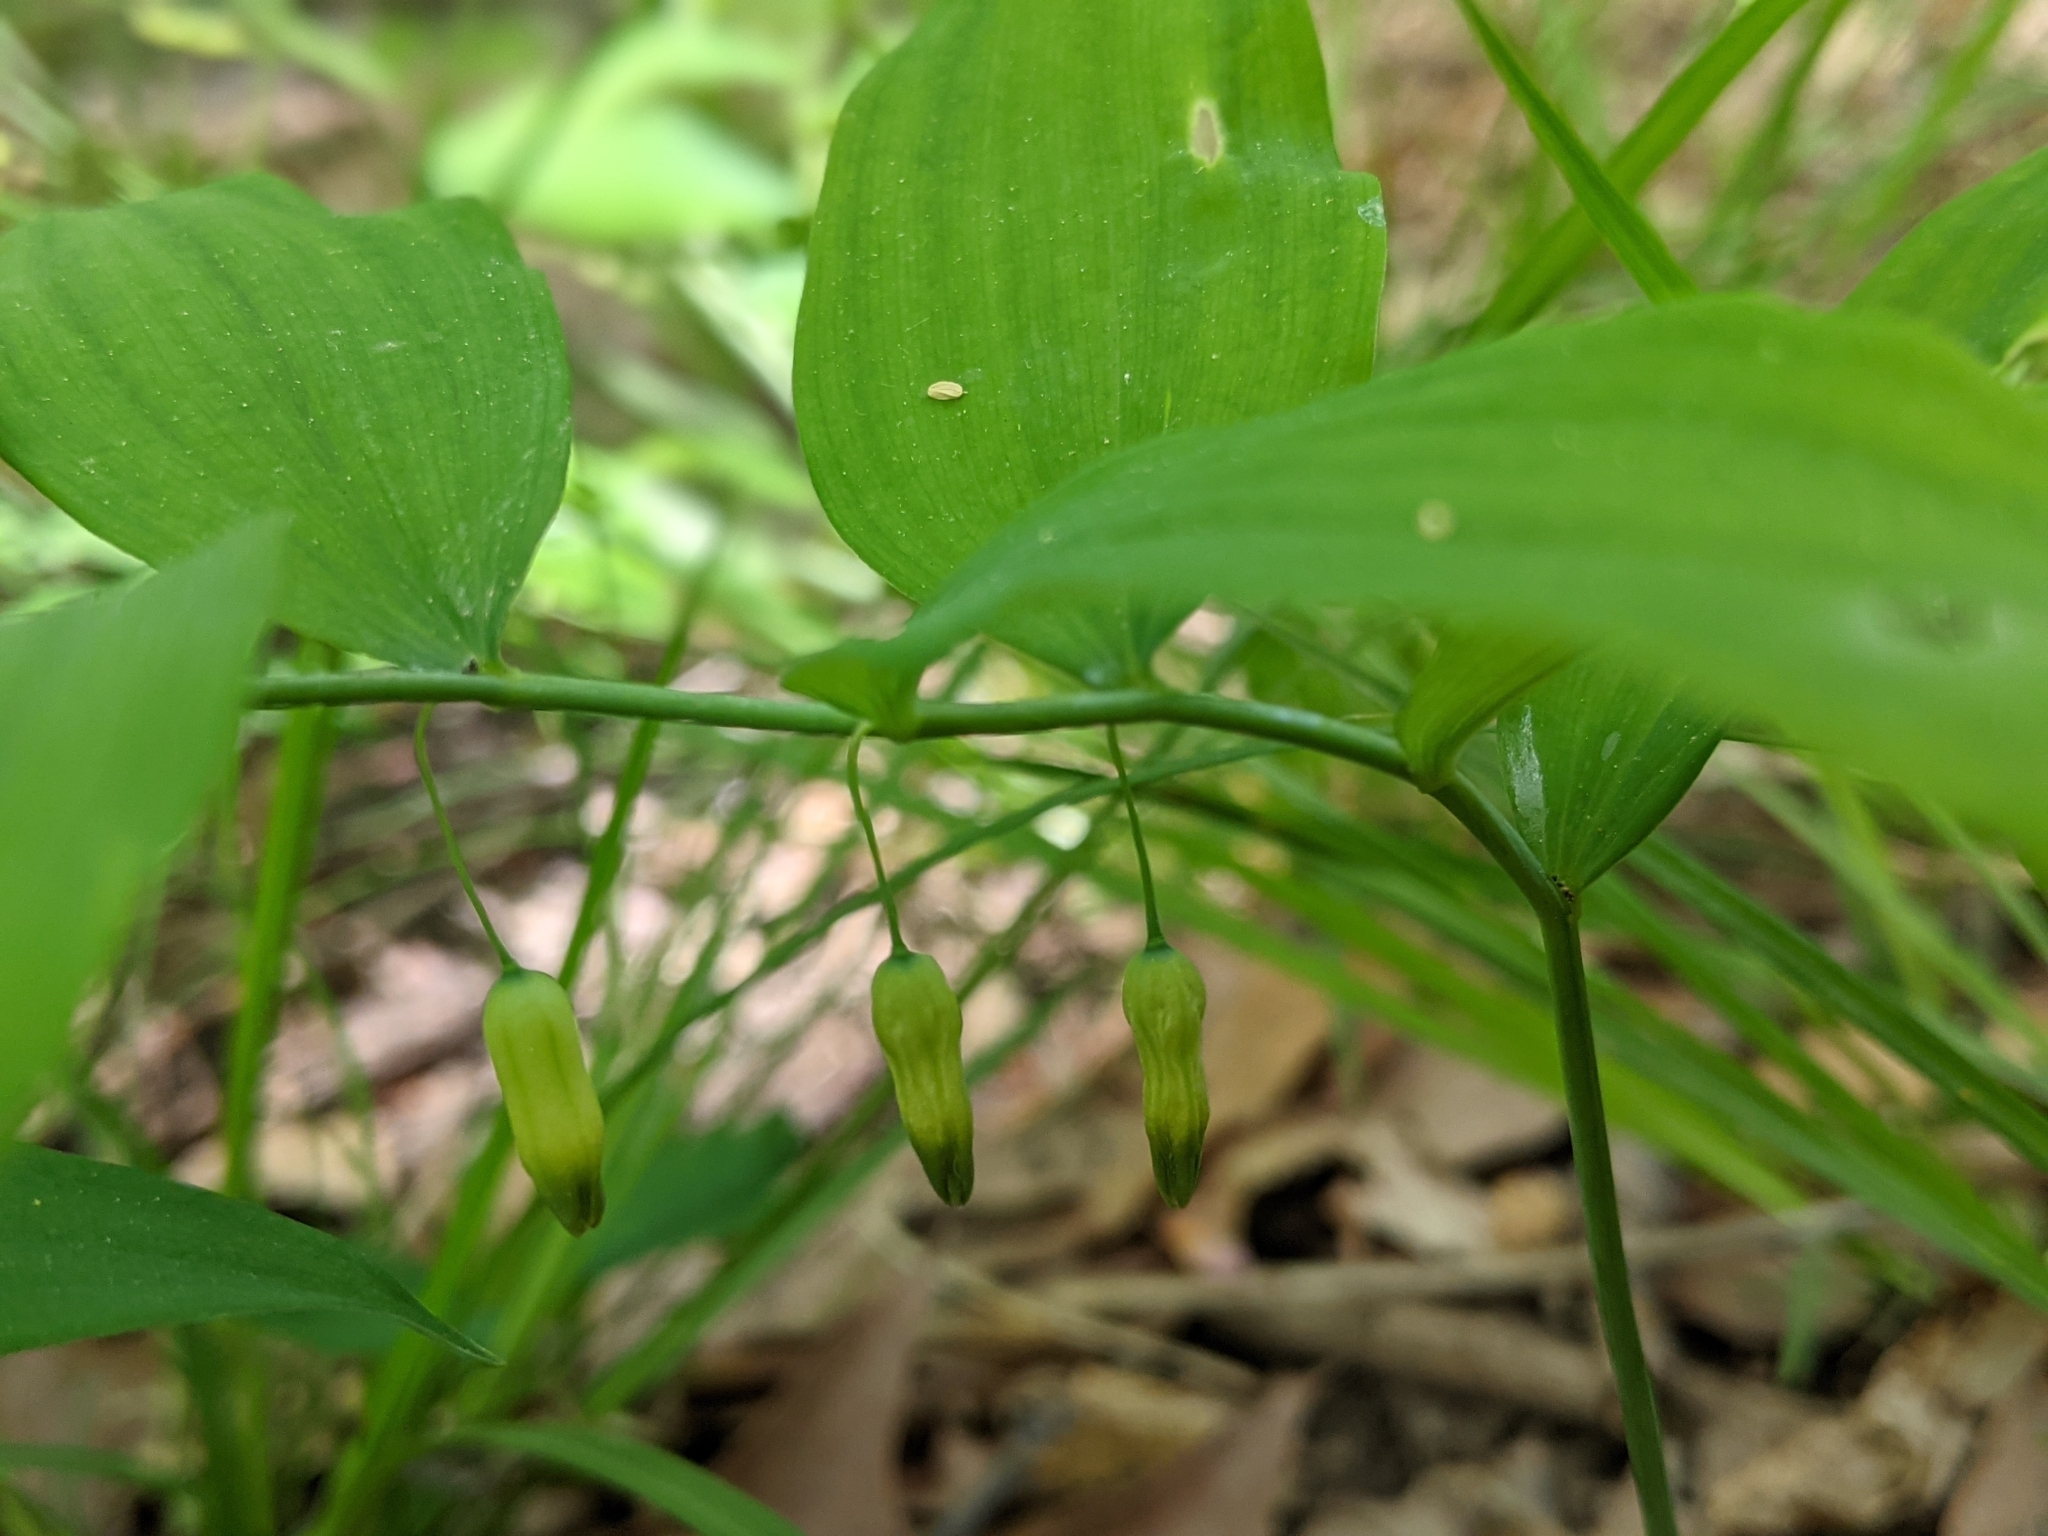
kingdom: Plantae
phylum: Tracheophyta
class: Liliopsida
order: Asparagales
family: Asparagaceae
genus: Polygonatum
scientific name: Polygonatum pubescens
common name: Downy solomon's seal
